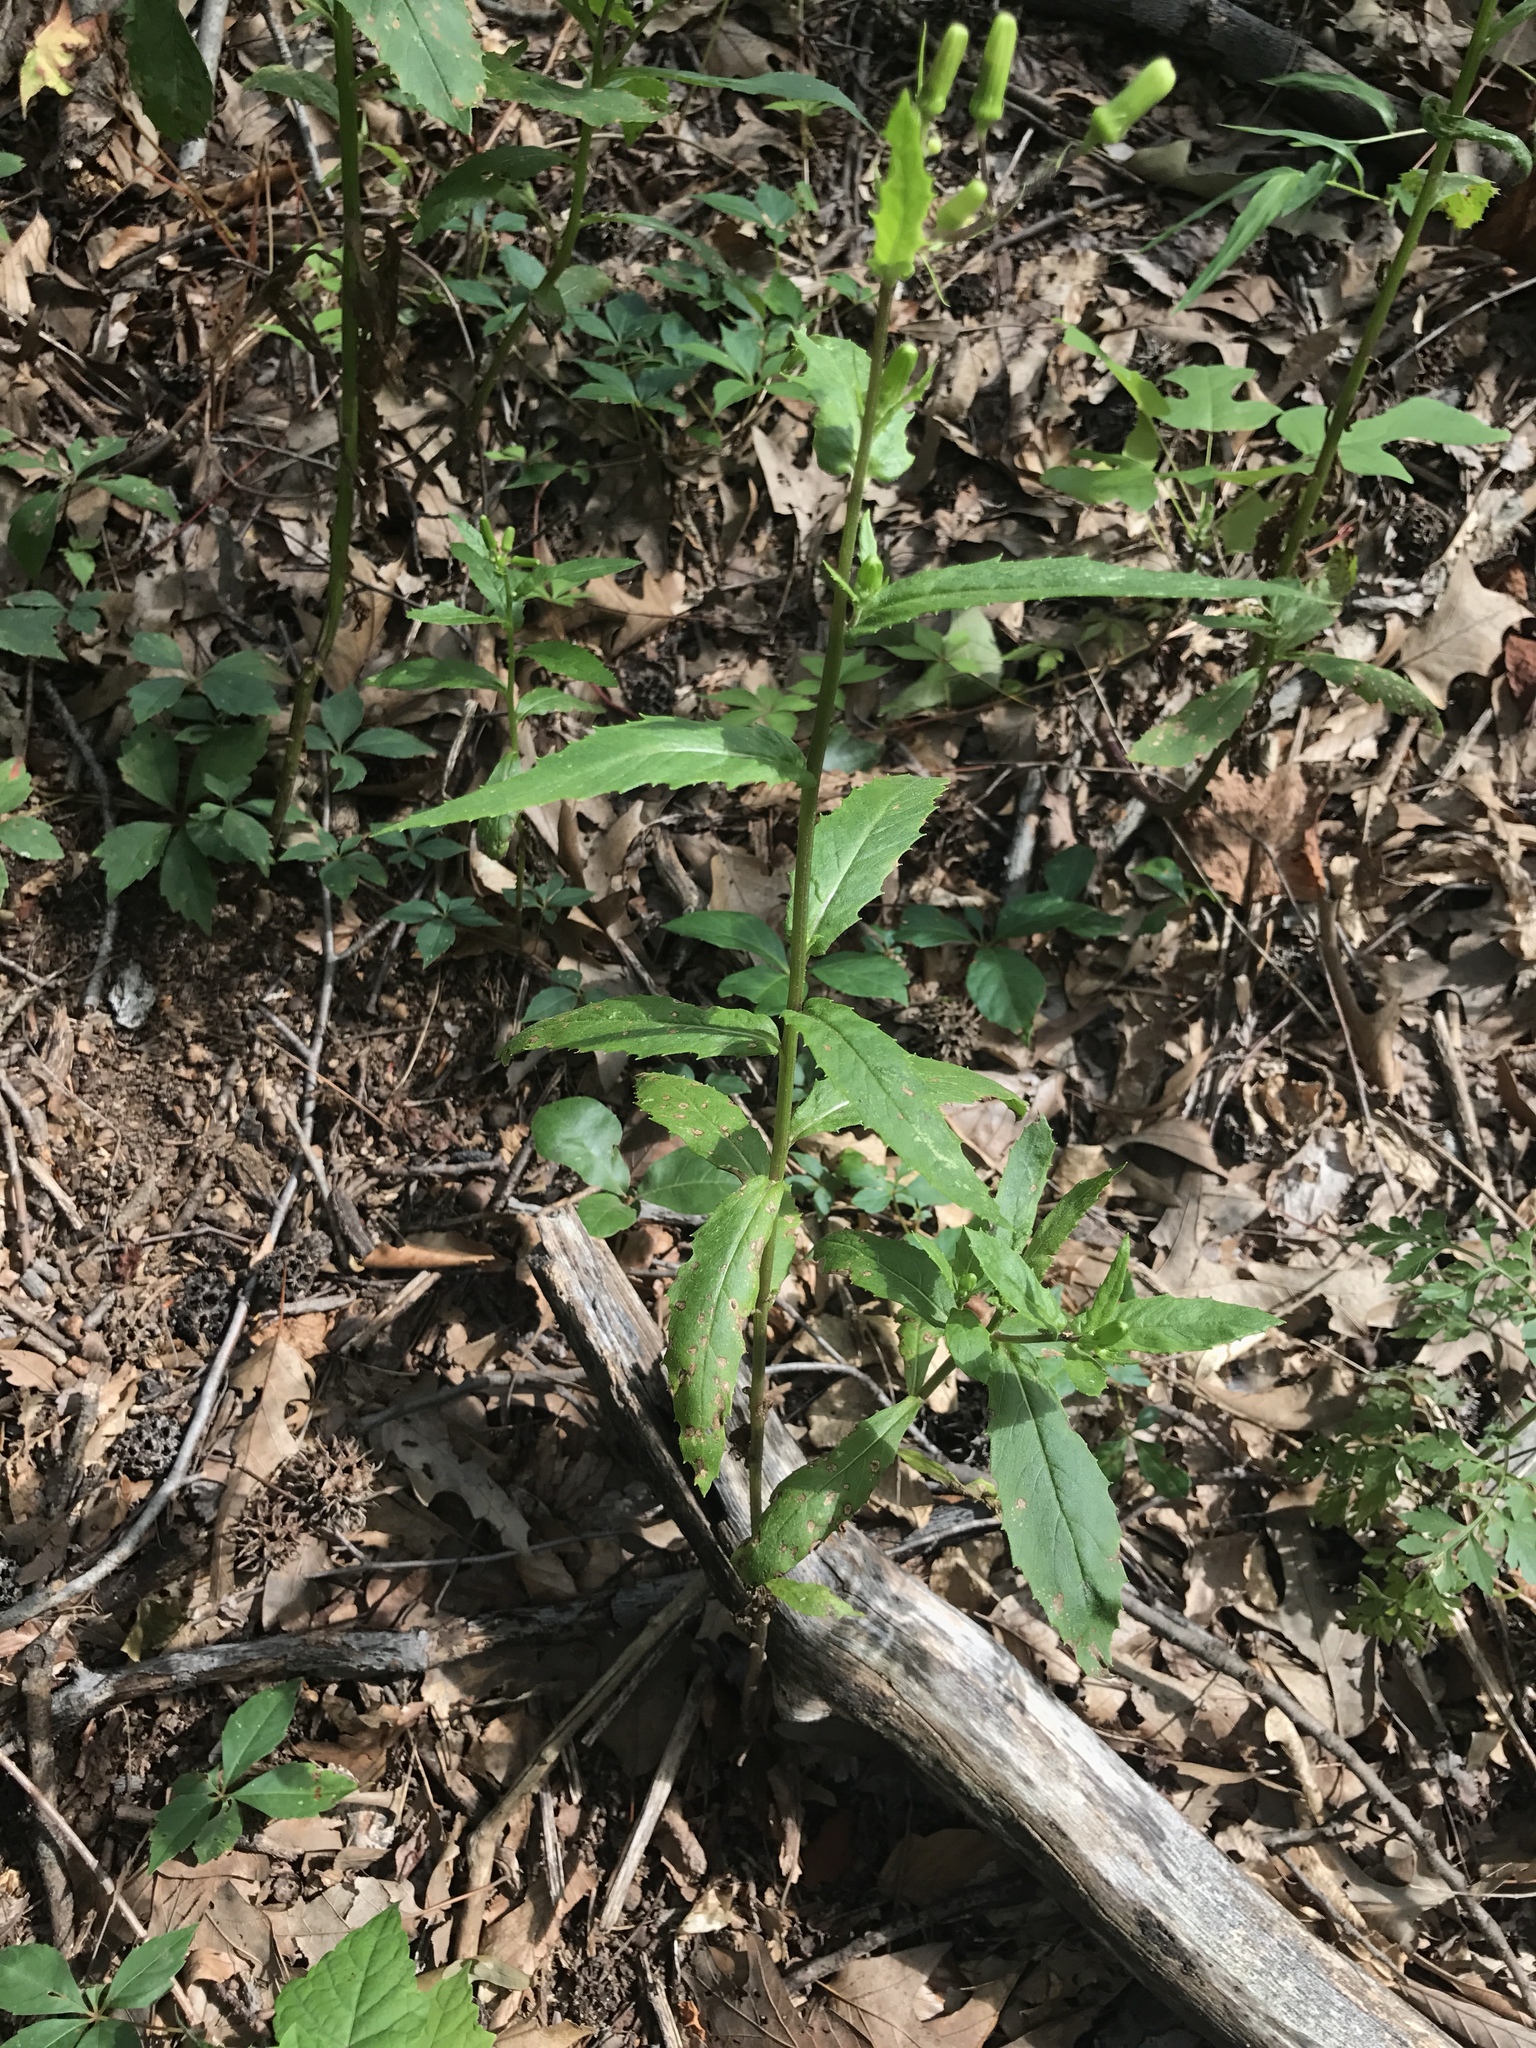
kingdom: Plantae
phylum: Tracheophyta
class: Magnoliopsida
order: Asterales
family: Asteraceae
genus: Erechtites
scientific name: Erechtites hieraciifolius
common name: American burnweed
